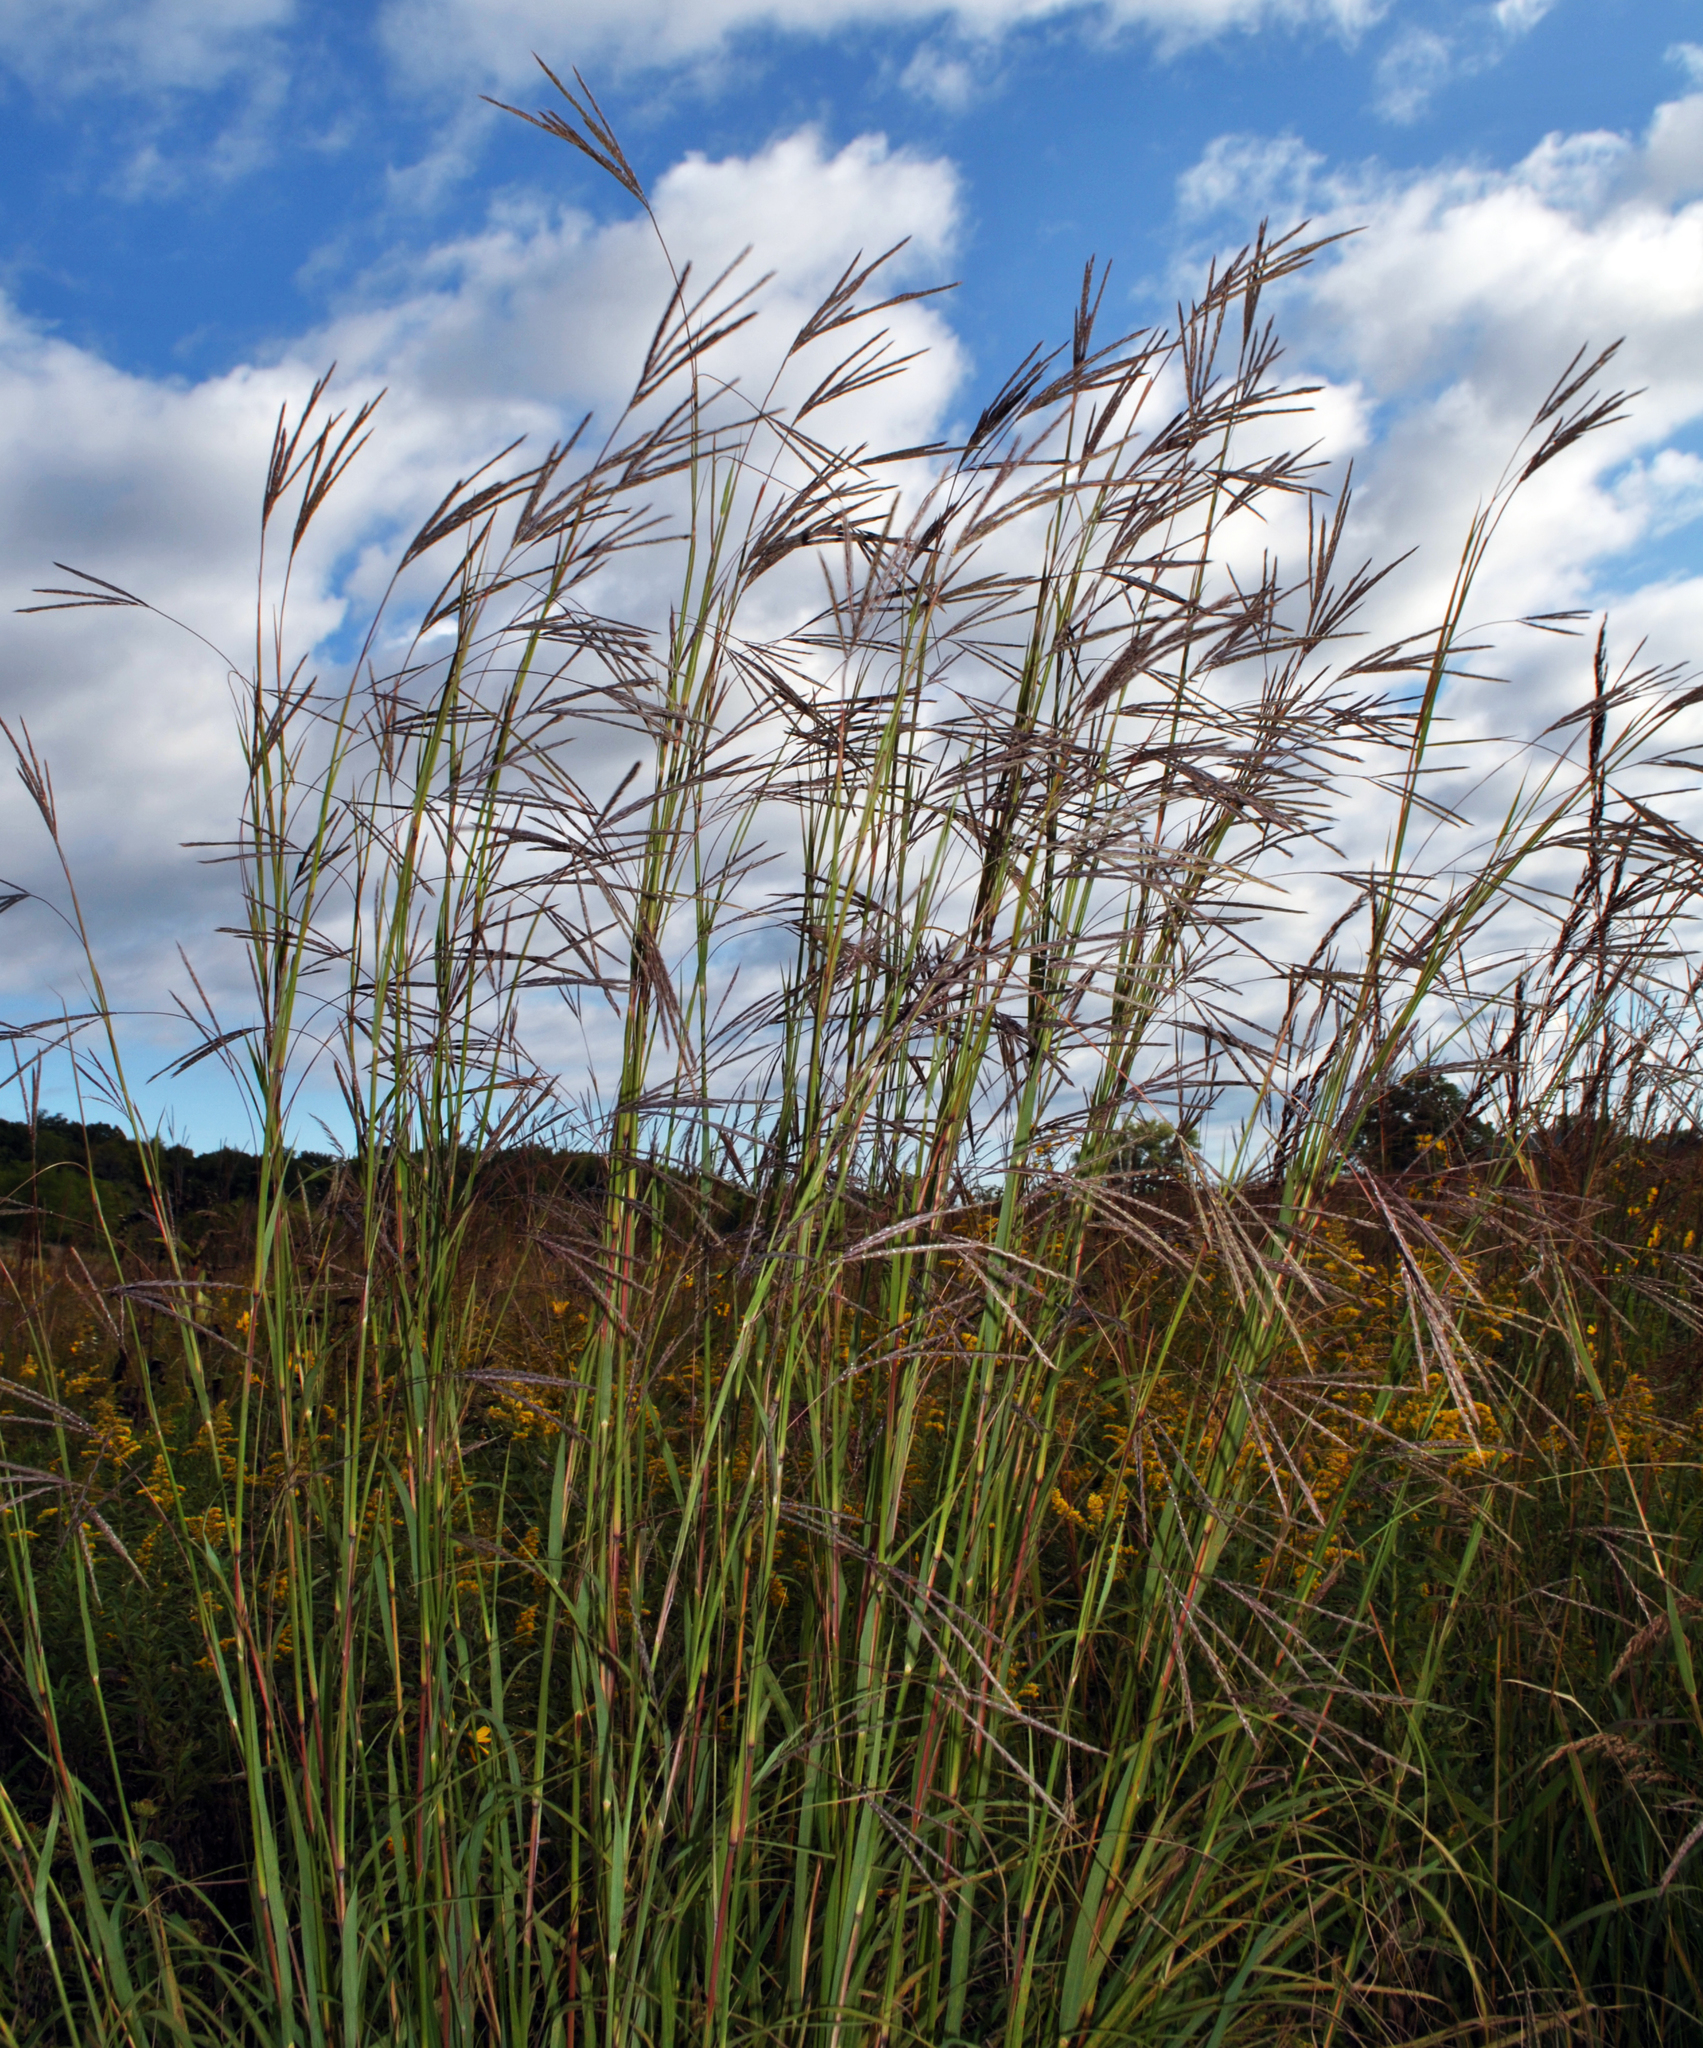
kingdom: Plantae
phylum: Tracheophyta
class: Liliopsida
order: Poales
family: Poaceae
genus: Andropogon
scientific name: Andropogon gerardi
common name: Big bluestem
